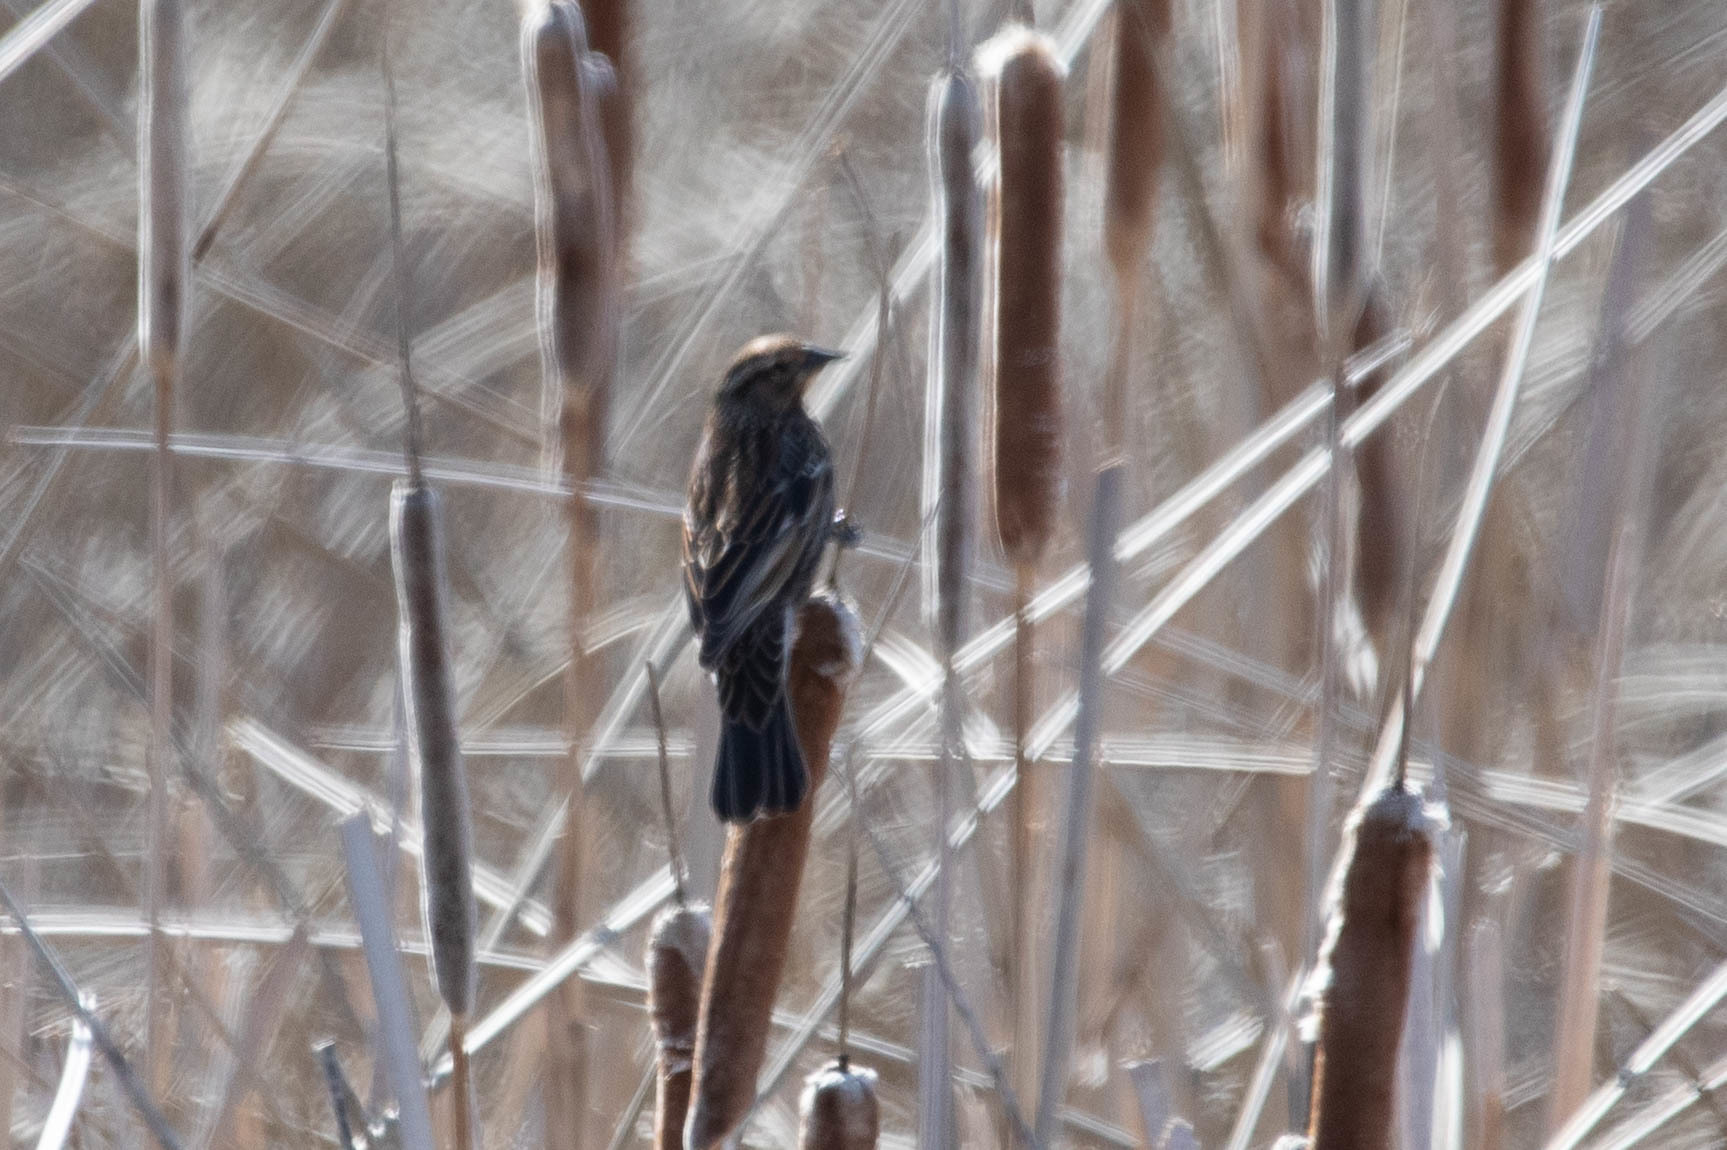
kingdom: Animalia
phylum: Chordata
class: Aves
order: Passeriformes
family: Icteridae
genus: Agelaius
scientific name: Agelaius phoeniceus
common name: Red-winged blackbird
